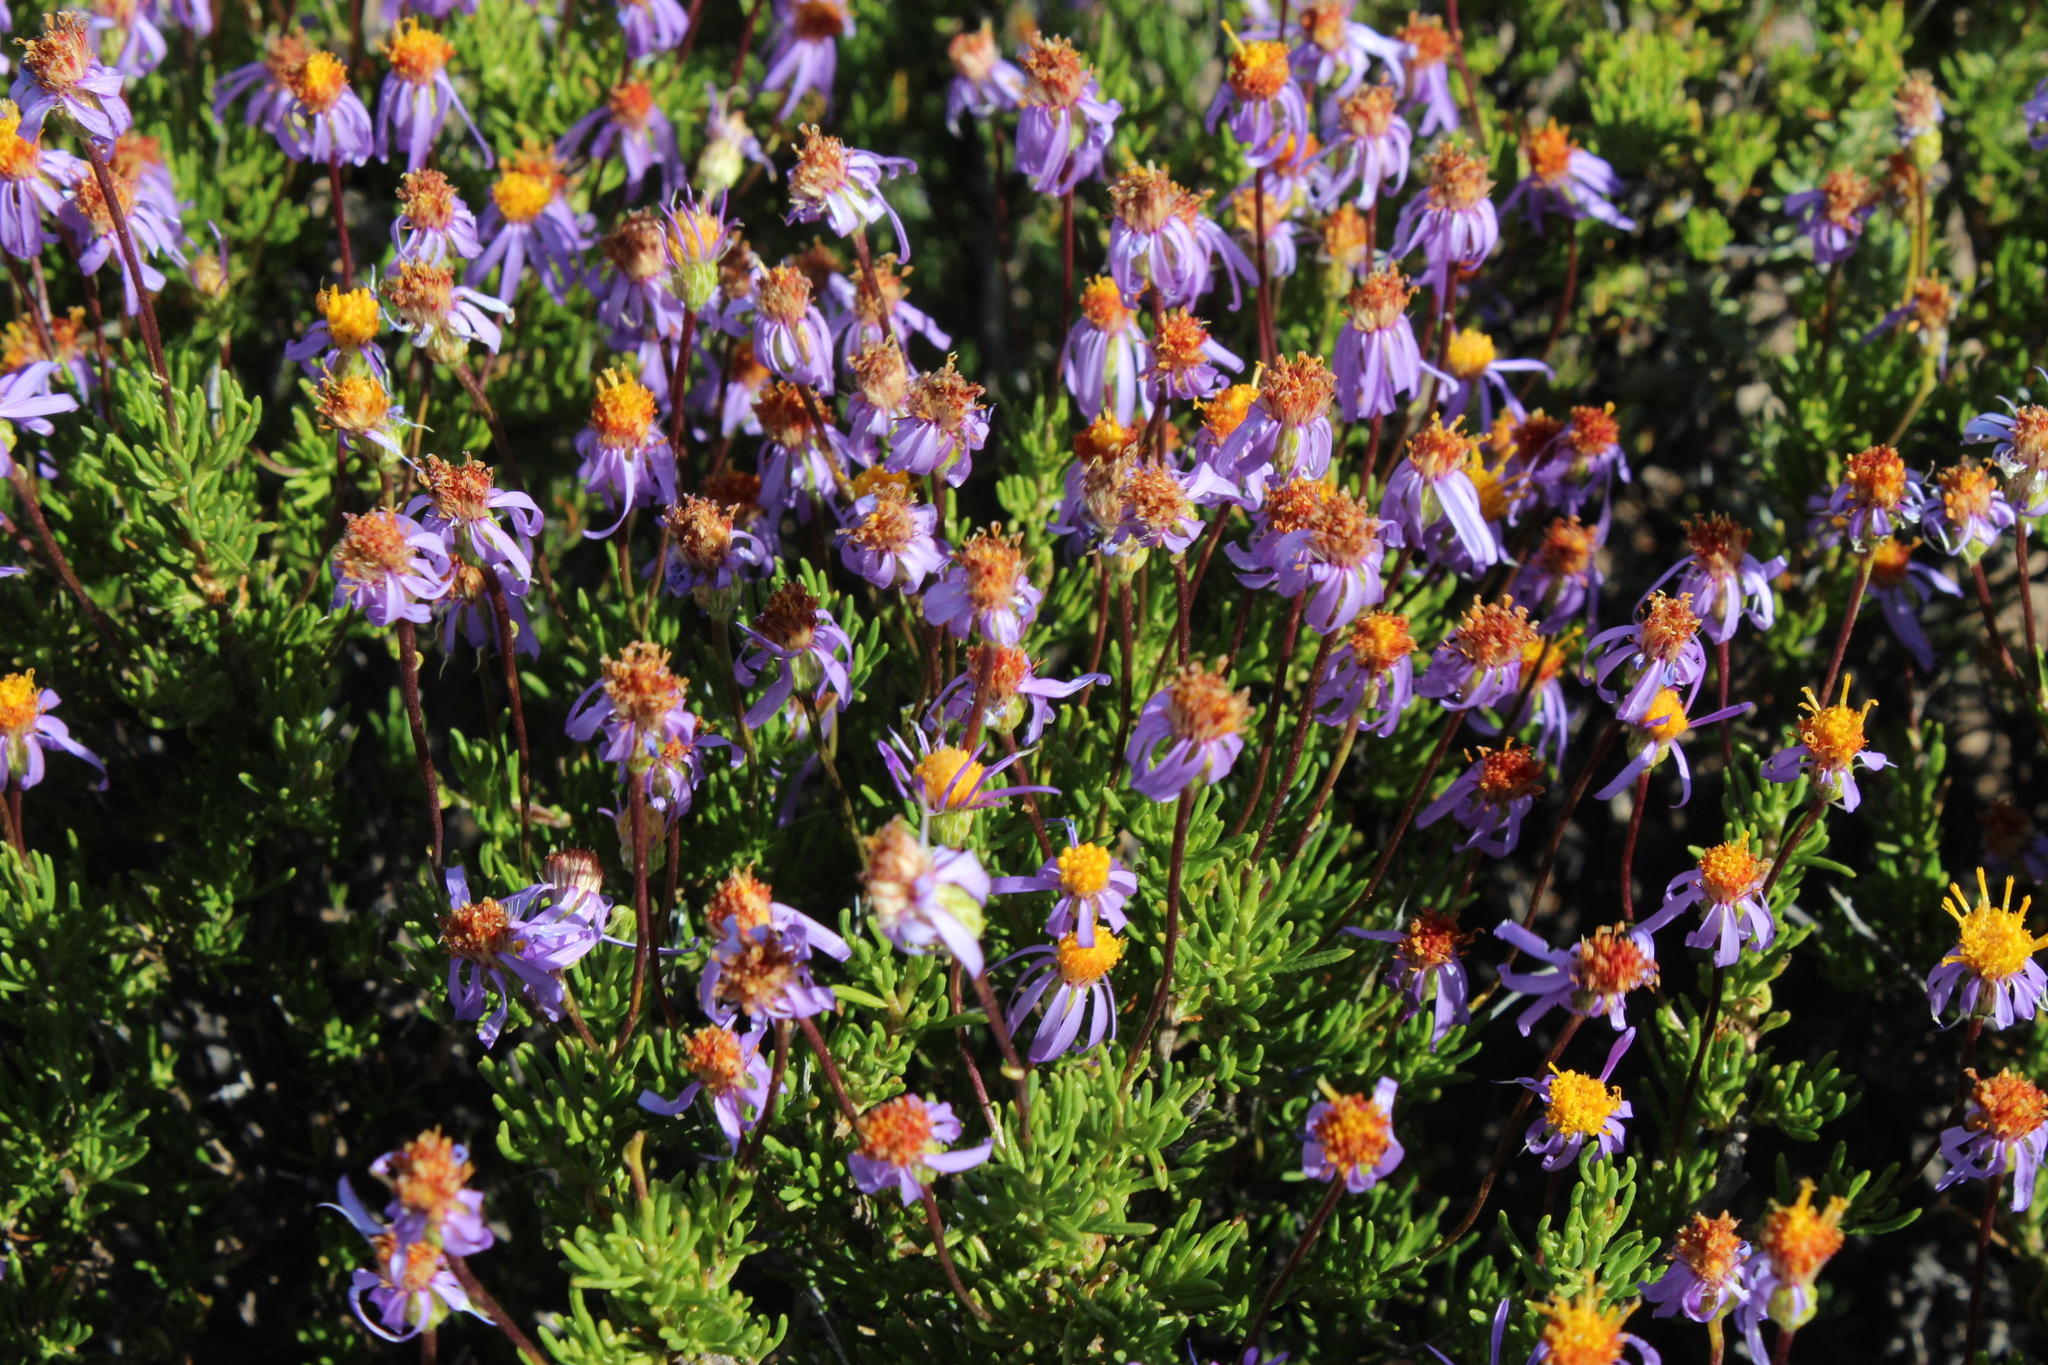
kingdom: Plantae
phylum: Tracheophyta
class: Magnoliopsida
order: Asterales
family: Asteraceae
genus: Felicia
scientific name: Felicia filifolia
